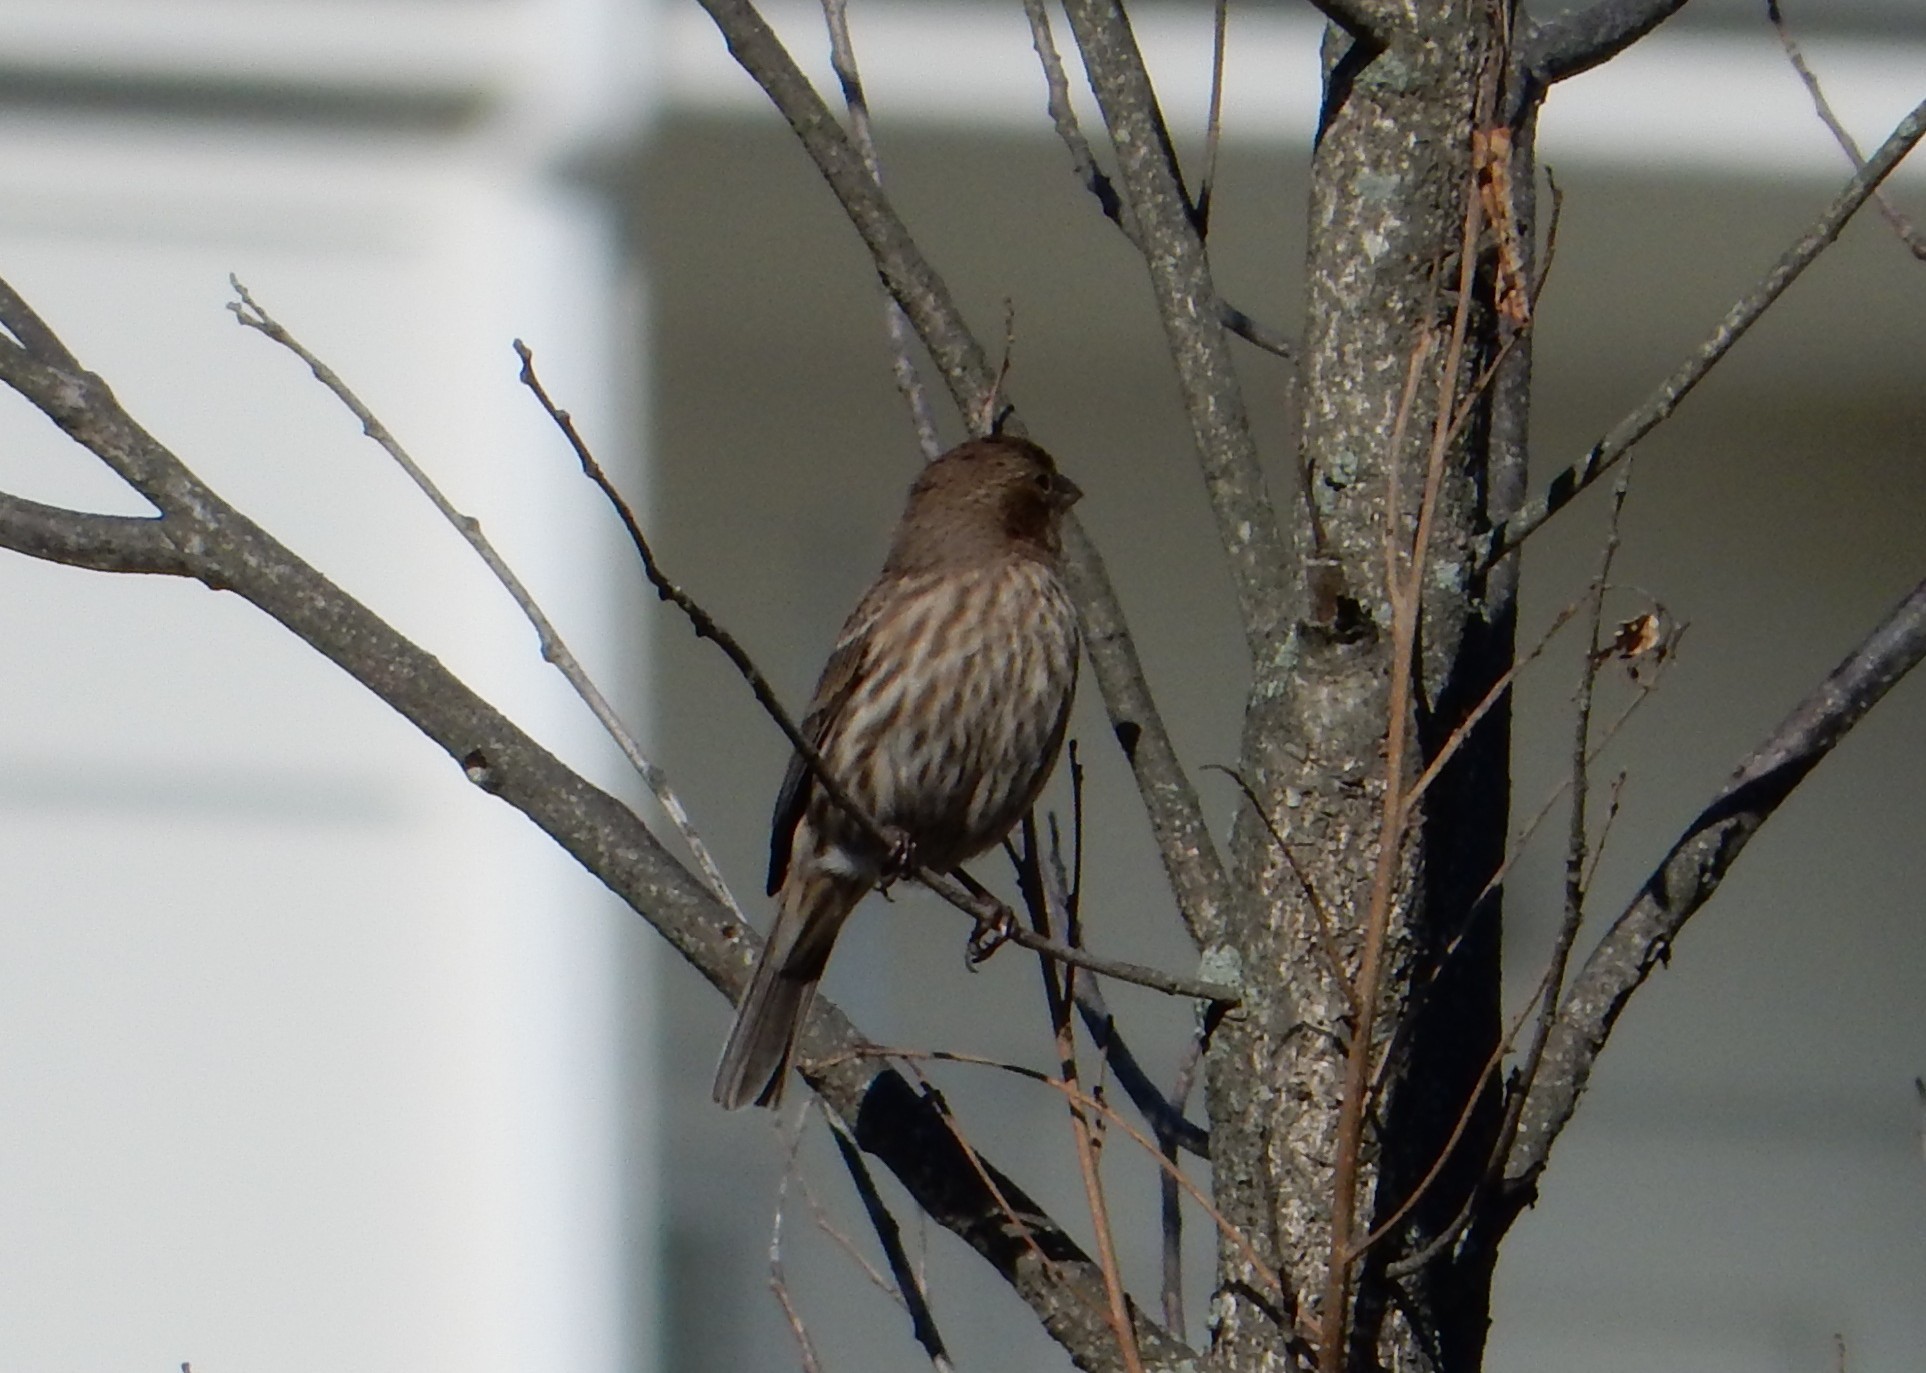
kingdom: Animalia
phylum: Chordata
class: Aves
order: Passeriformes
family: Fringillidae
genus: Haemorhous
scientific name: Haemorhous mexicanus
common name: House finch
